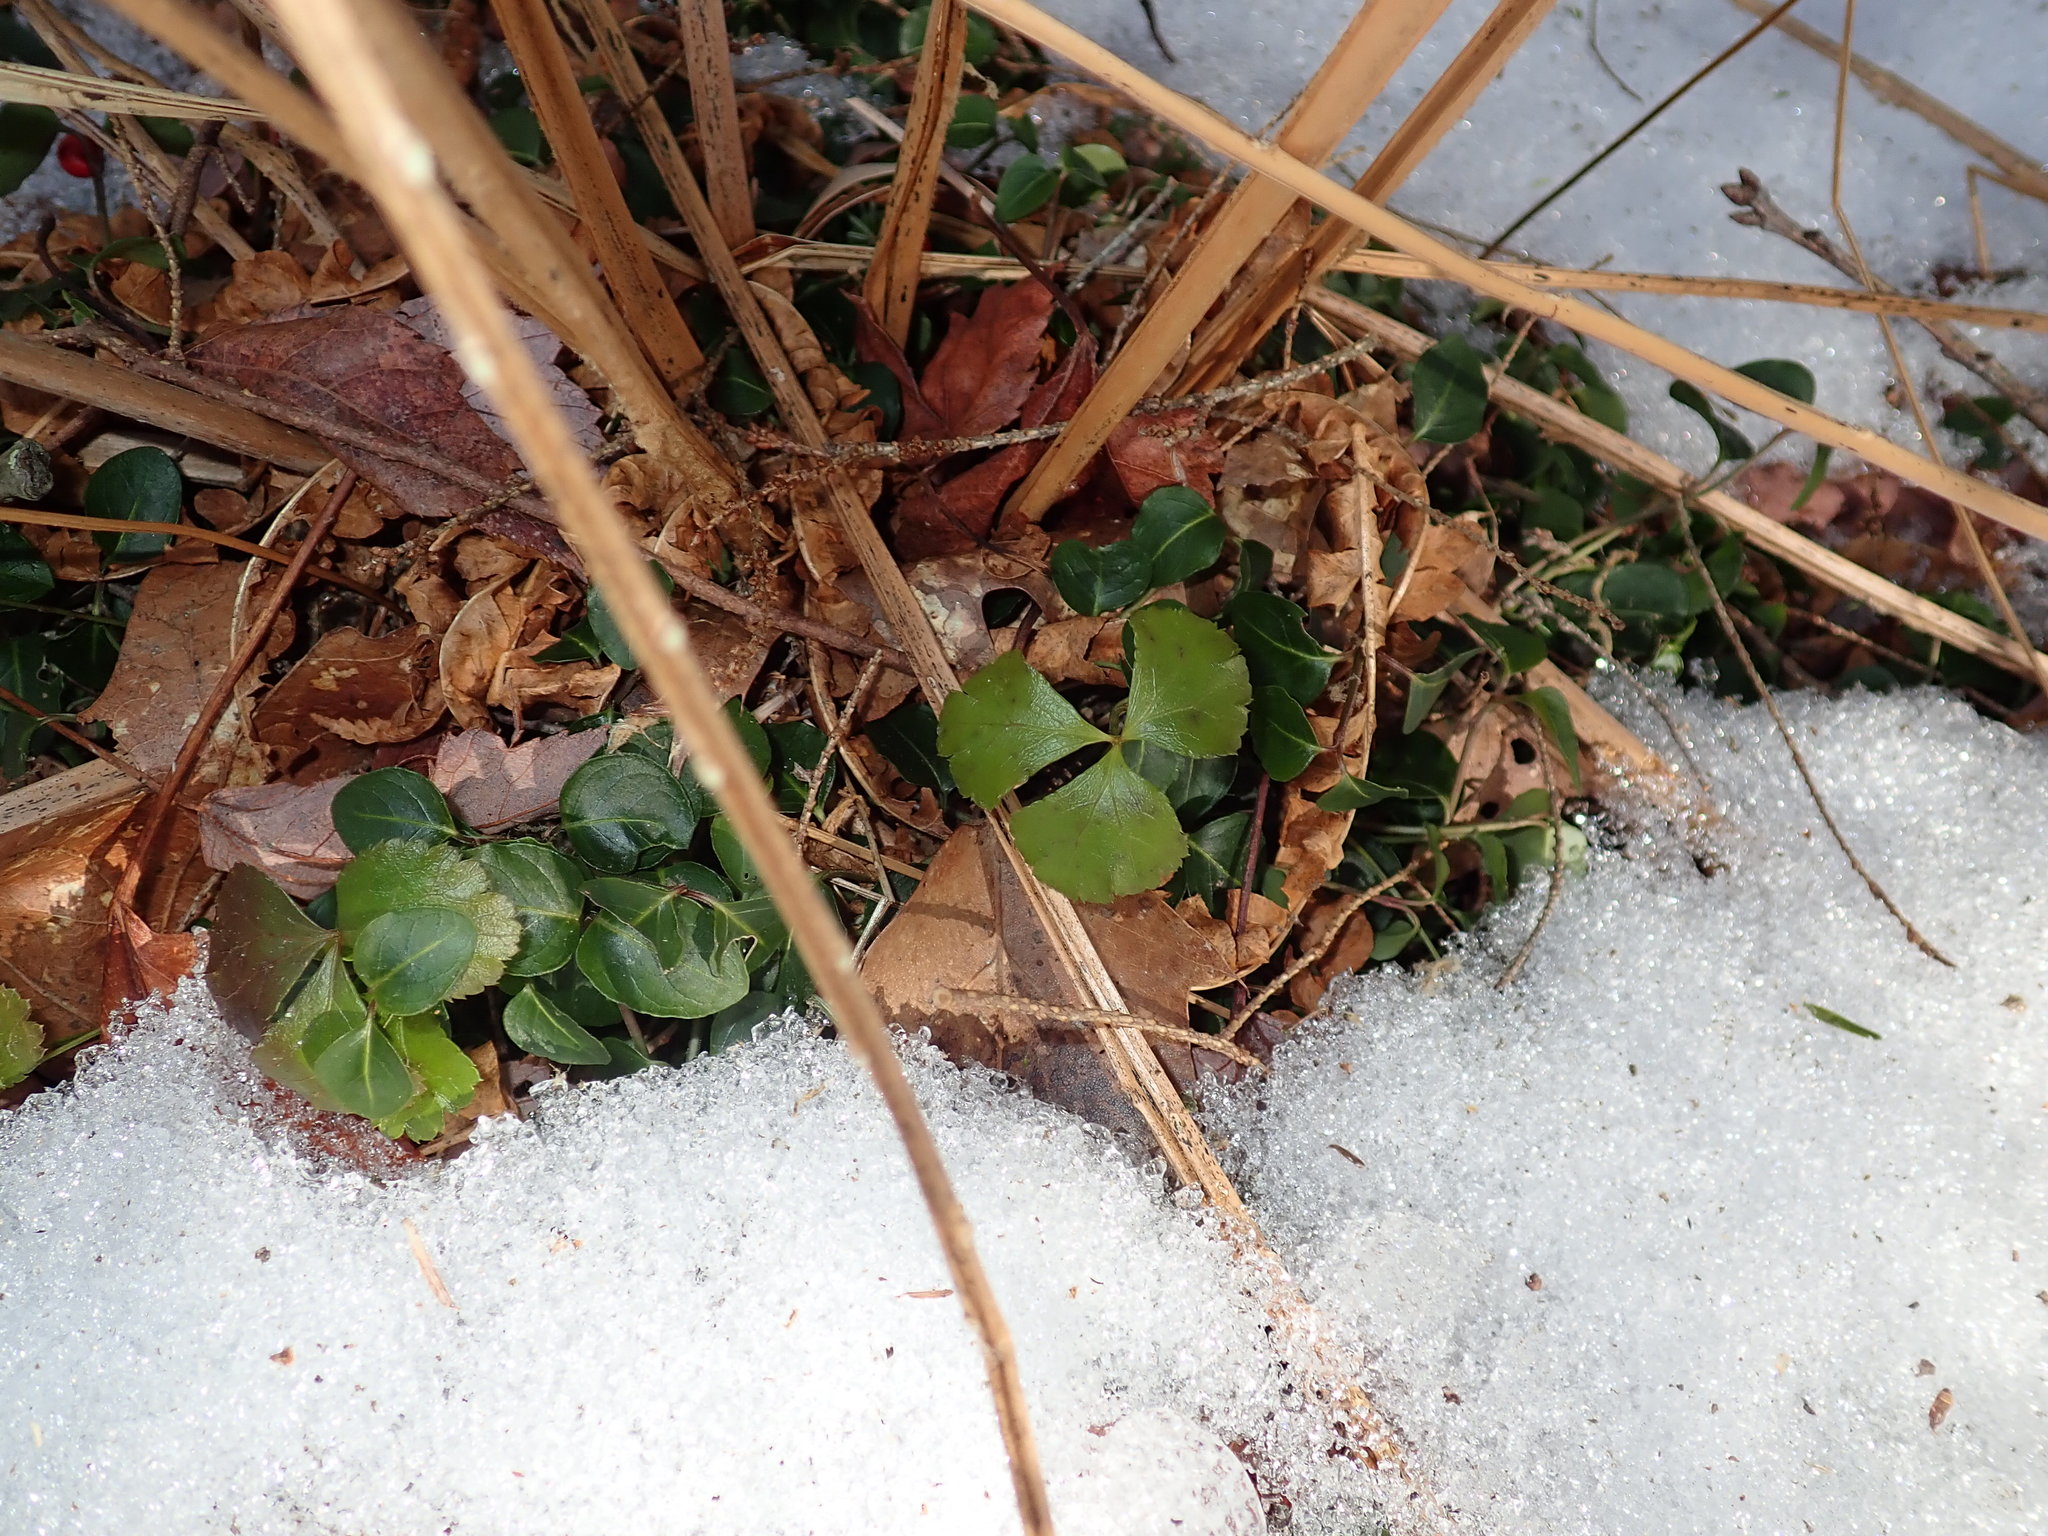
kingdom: Plantae
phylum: Tracheophyta
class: Magnoliopsida
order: Ranunculales
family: Ranunculaceae
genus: Coptis
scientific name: Coptis trifolia
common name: Canker-root
